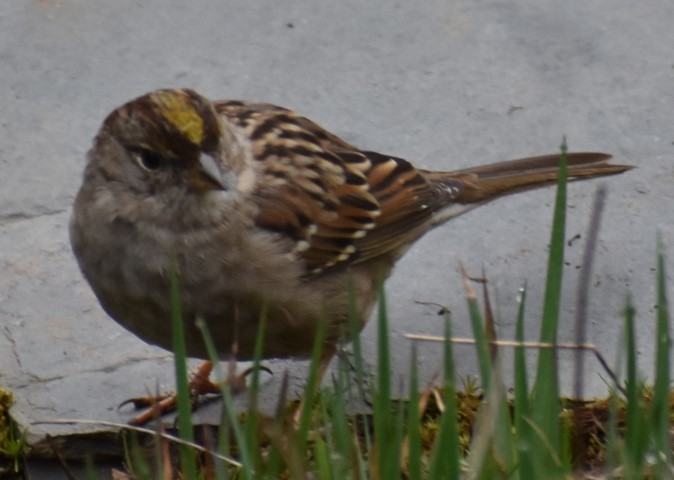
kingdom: Animalia
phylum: Chordata
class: Aves
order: Passeriformes
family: Passerellidae
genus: Zonotrichia
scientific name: Zonotrichia atricapilla
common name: Golden-crowned sparrow
